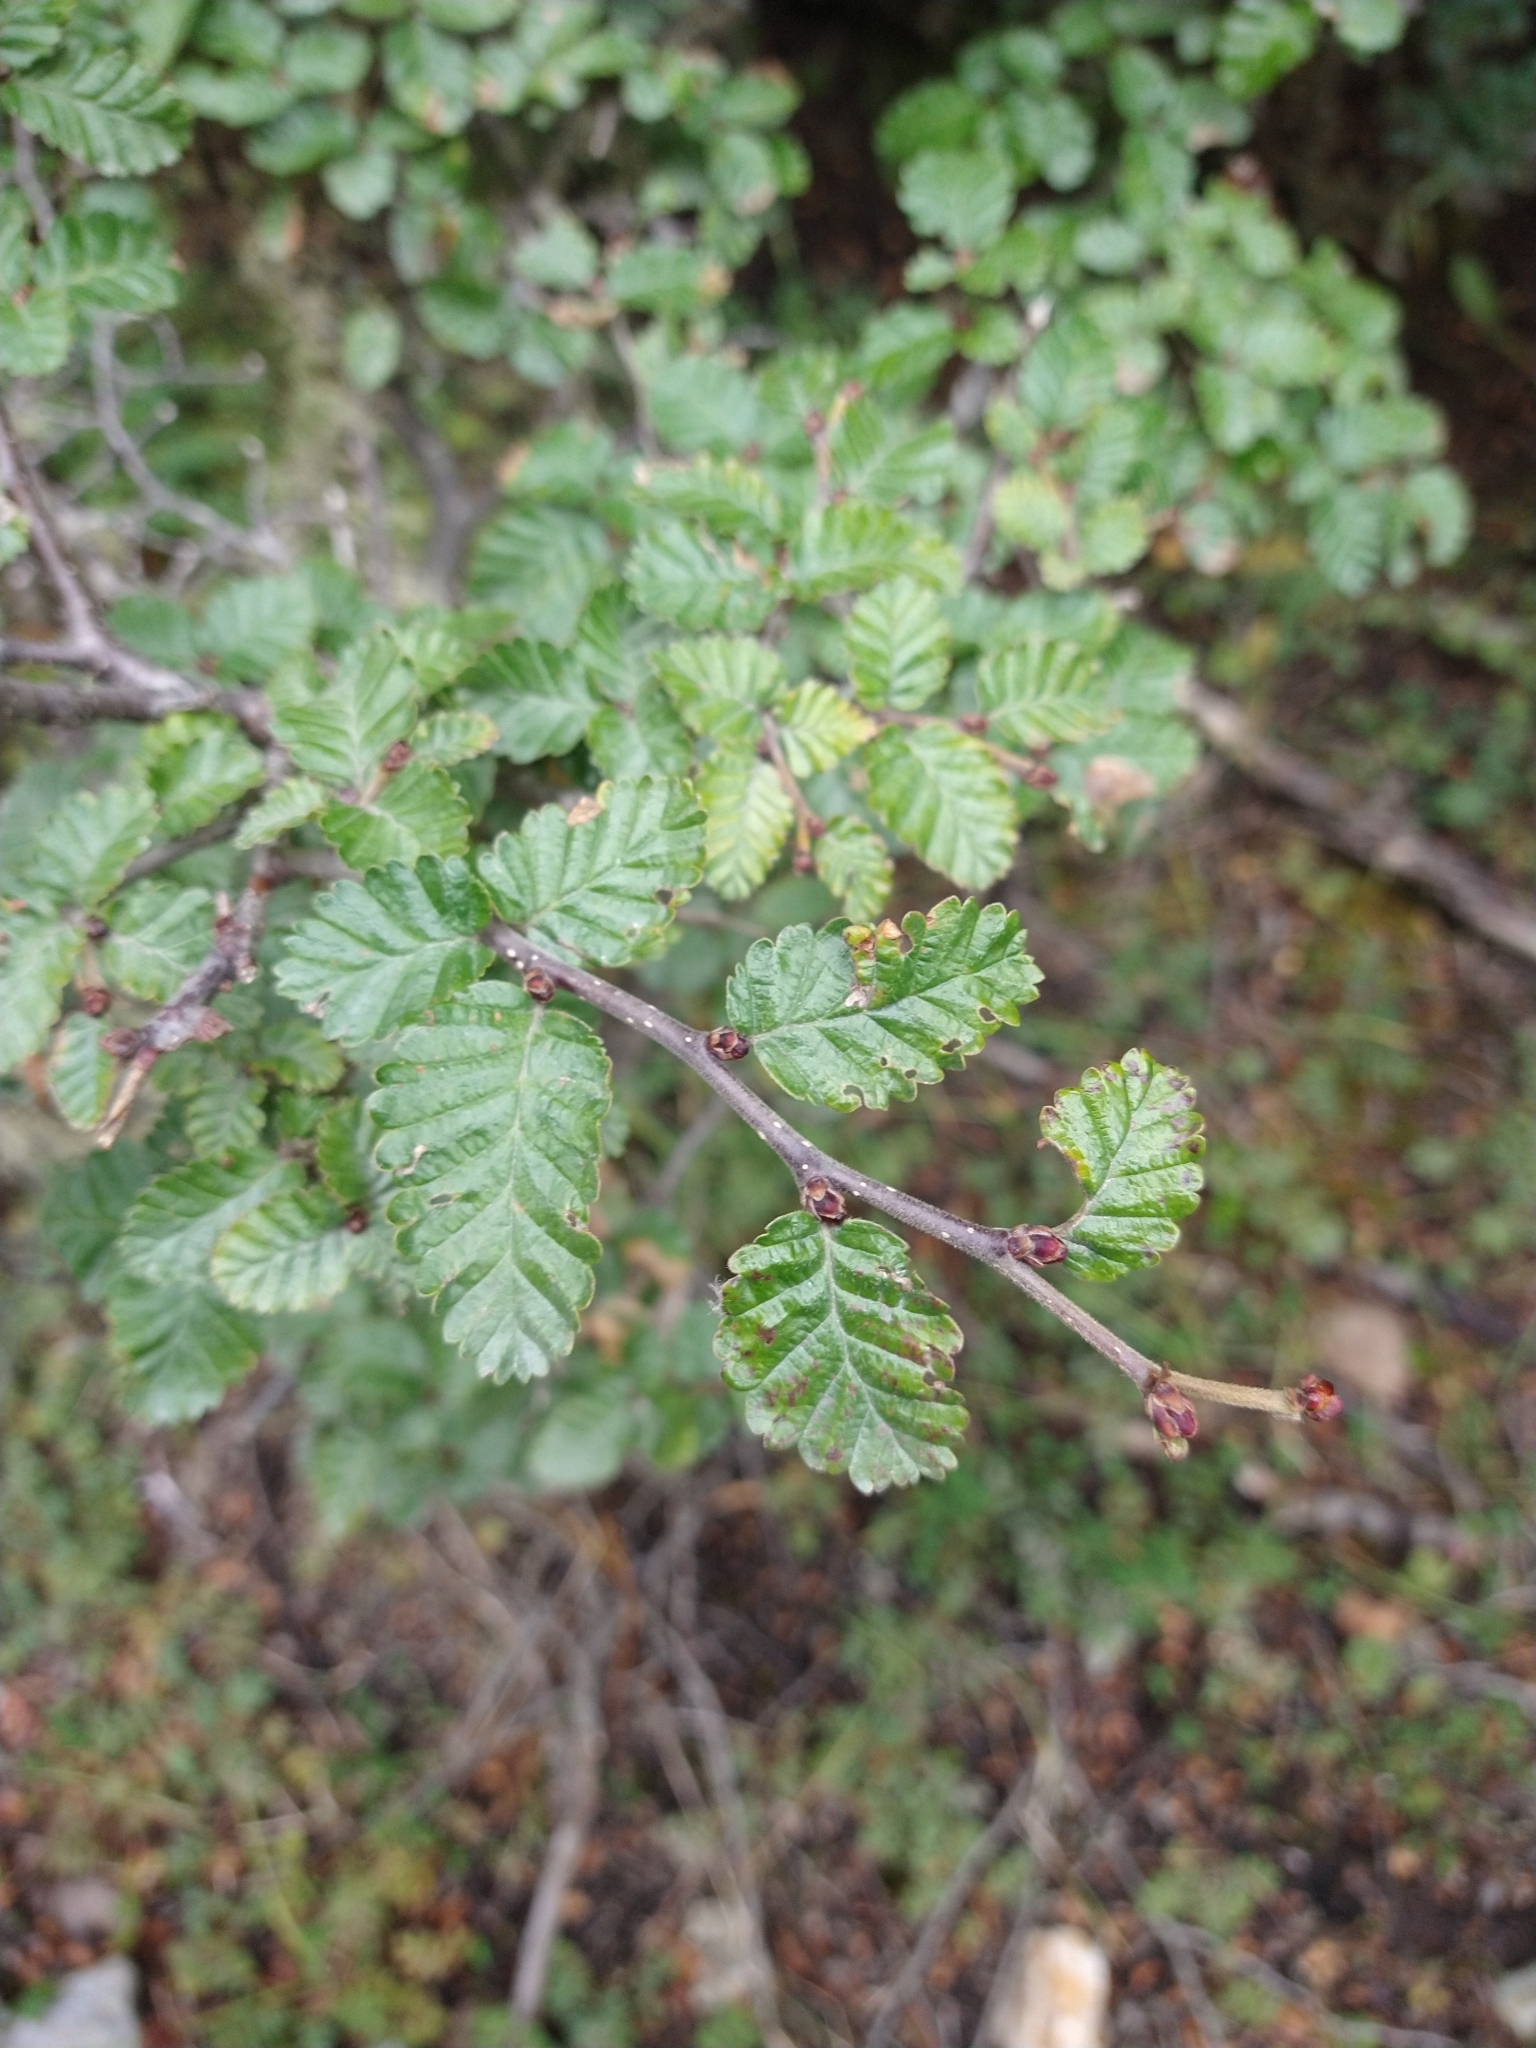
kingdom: Plantae
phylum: Tracheophyta
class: Magnoliopsida
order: Fagales
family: Nothofagaceae
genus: Nothofagus
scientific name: Nothofagus pumilio
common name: Lenga beech
